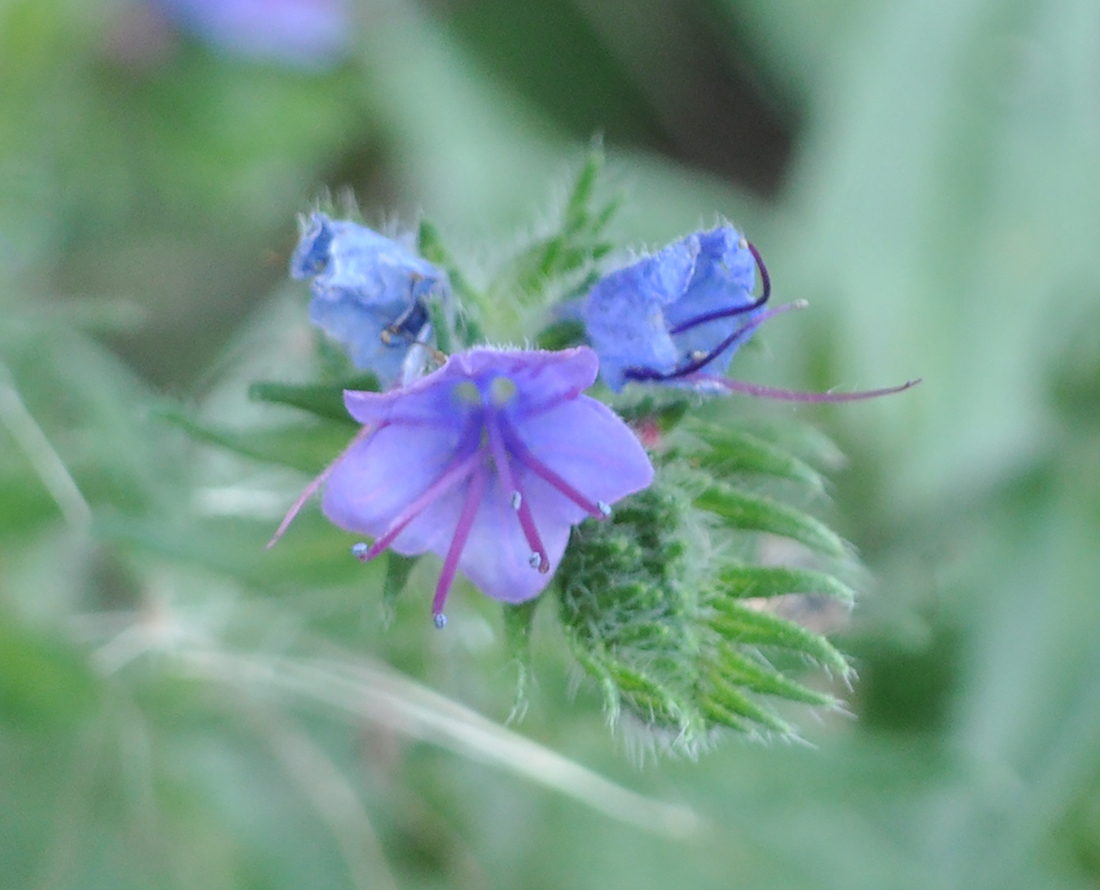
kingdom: Plantae
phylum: Tracheophyta
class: Magnoliopsida
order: Boraginales
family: Boraginaceae
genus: Echium
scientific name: Echium vulgare
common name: Common viper's bugloss
